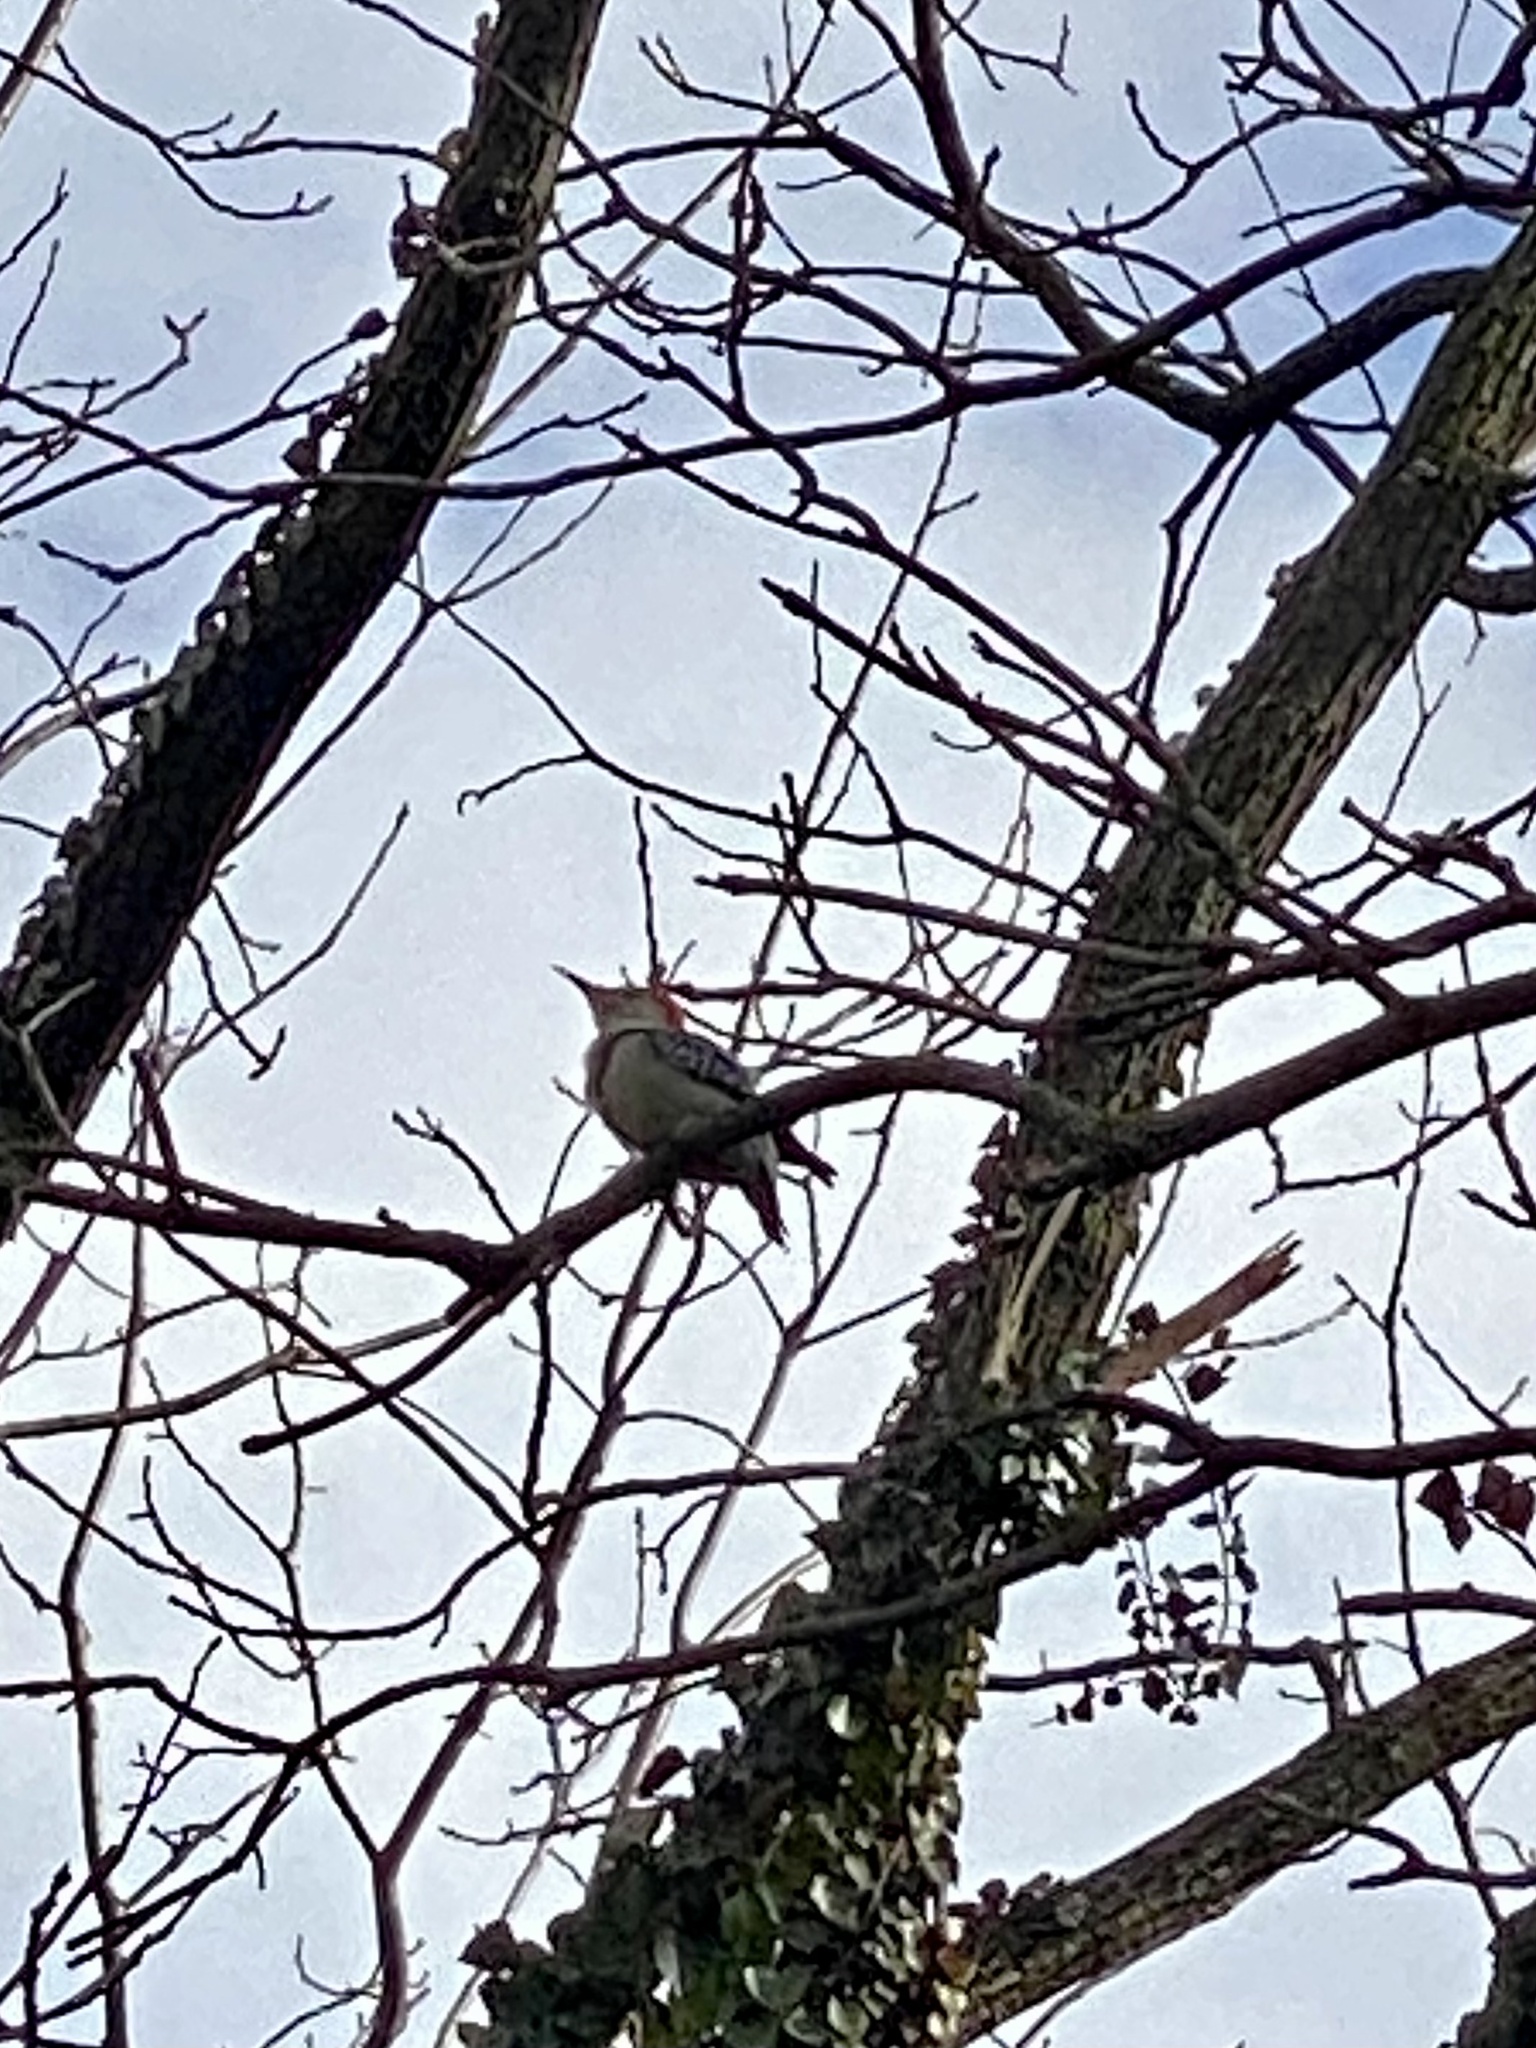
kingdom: Animalia
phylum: Chordata
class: Aves
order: Piciformes
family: Picidae
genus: Melanerpes
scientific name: Melanerpes carolinus
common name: Red-bellied woodpecker
